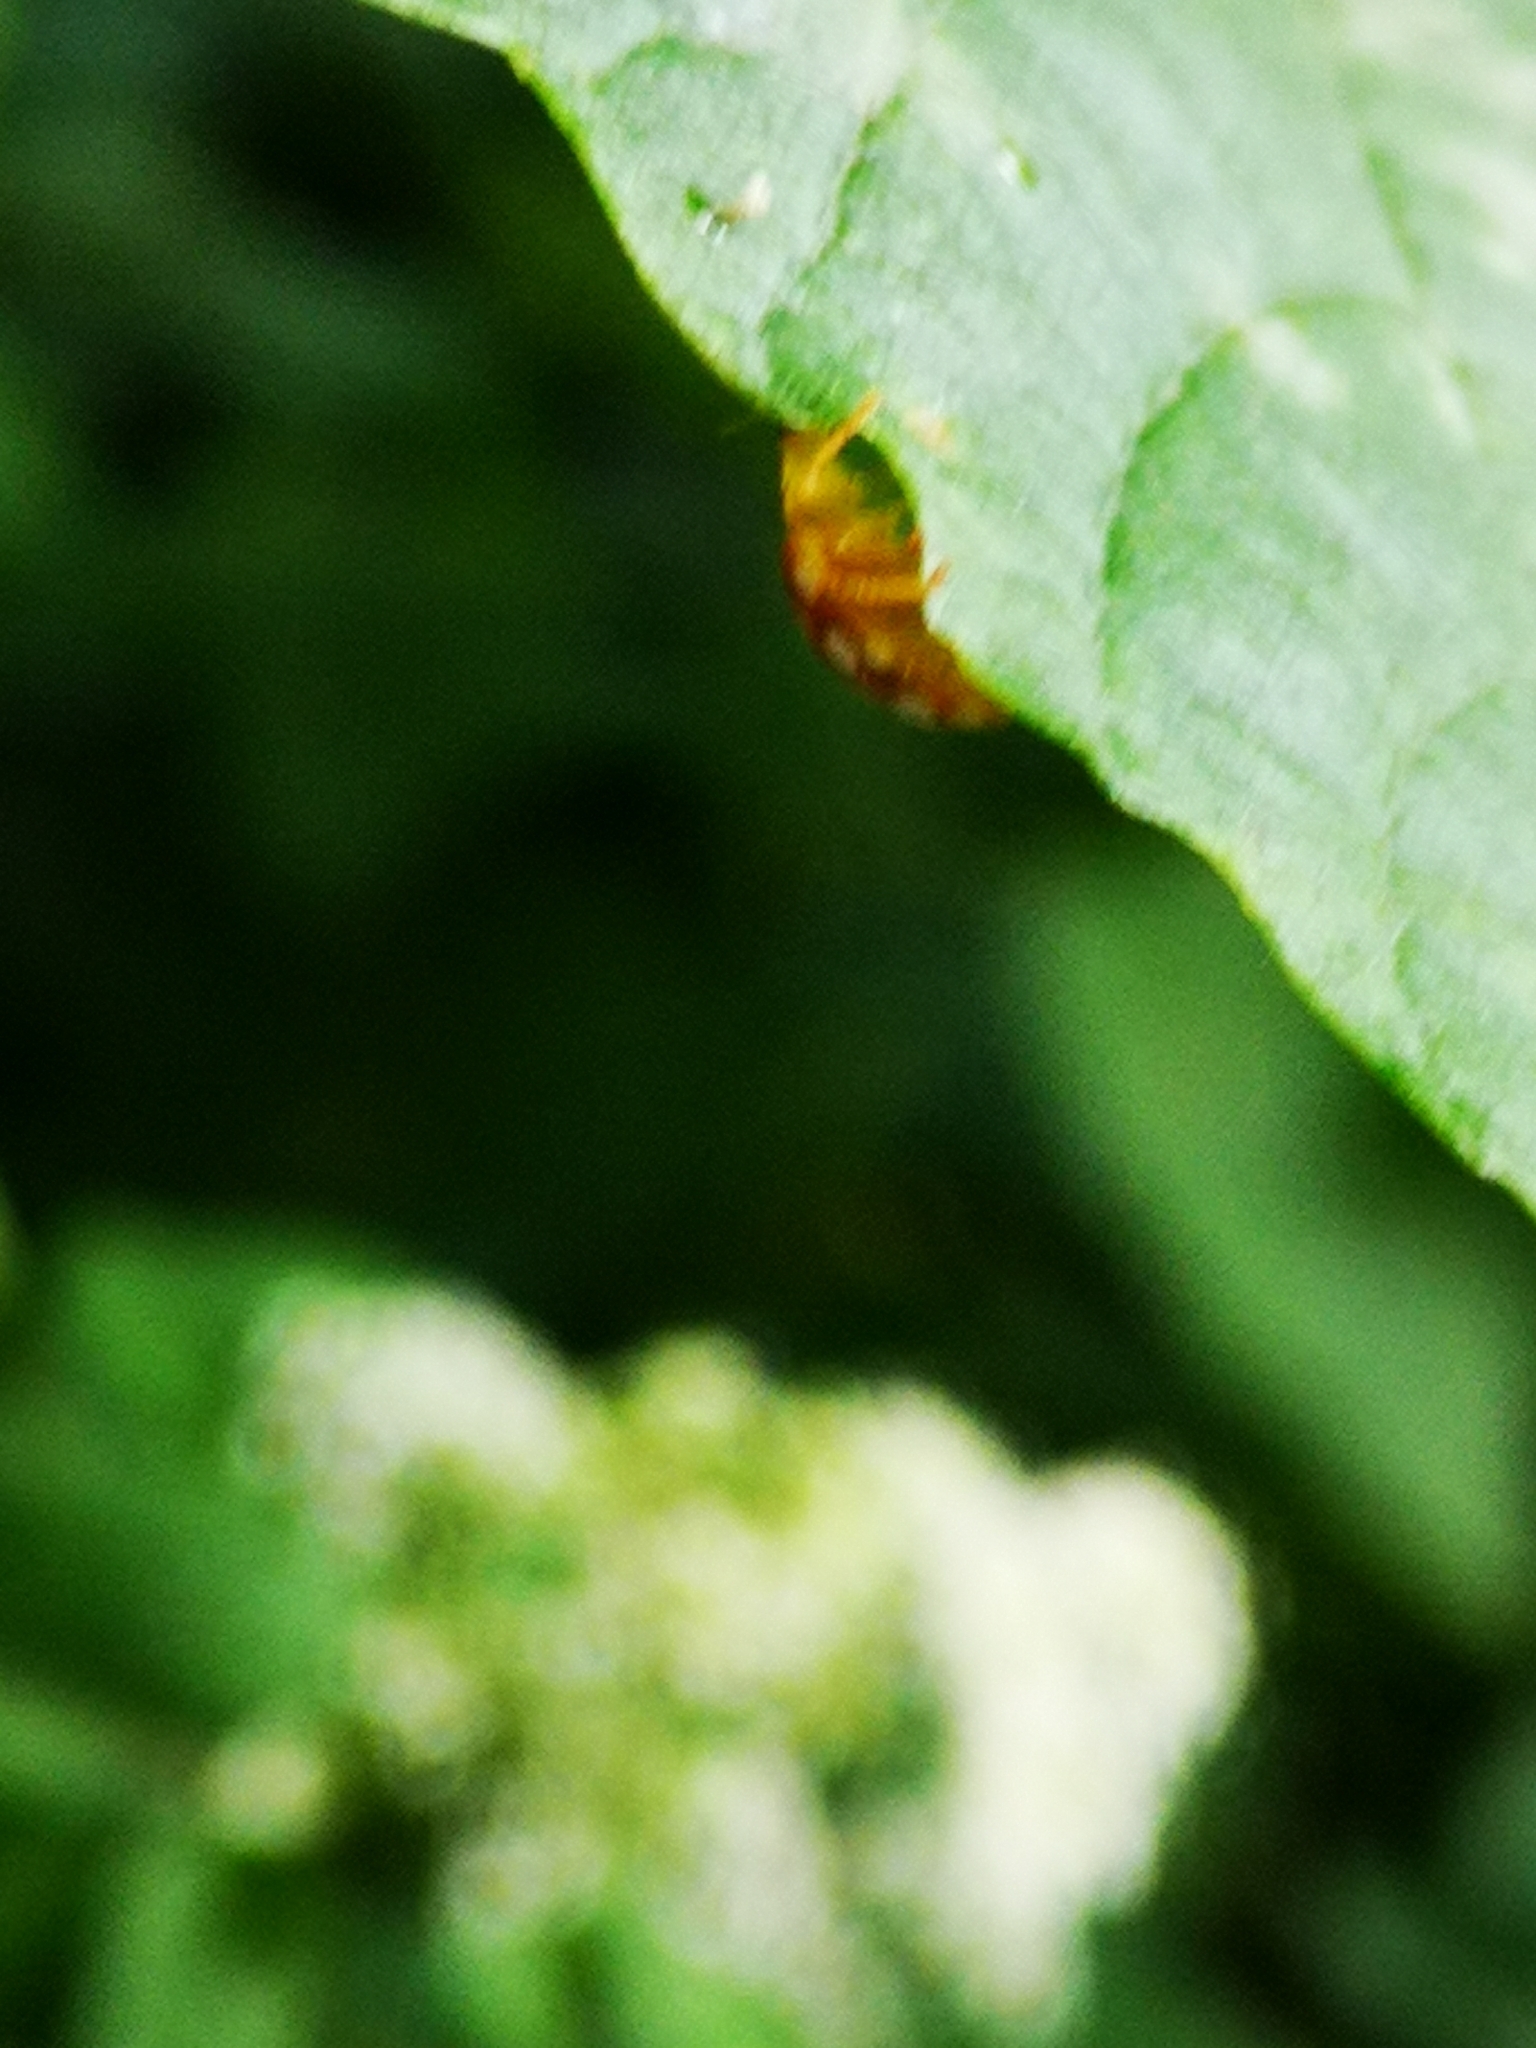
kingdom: Animalia
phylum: Arthropoda
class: Insecta
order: Coleoptera
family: Coccinellidae
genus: Halyzia
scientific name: Halyzia sedecimguttata
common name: Orange ladybird
